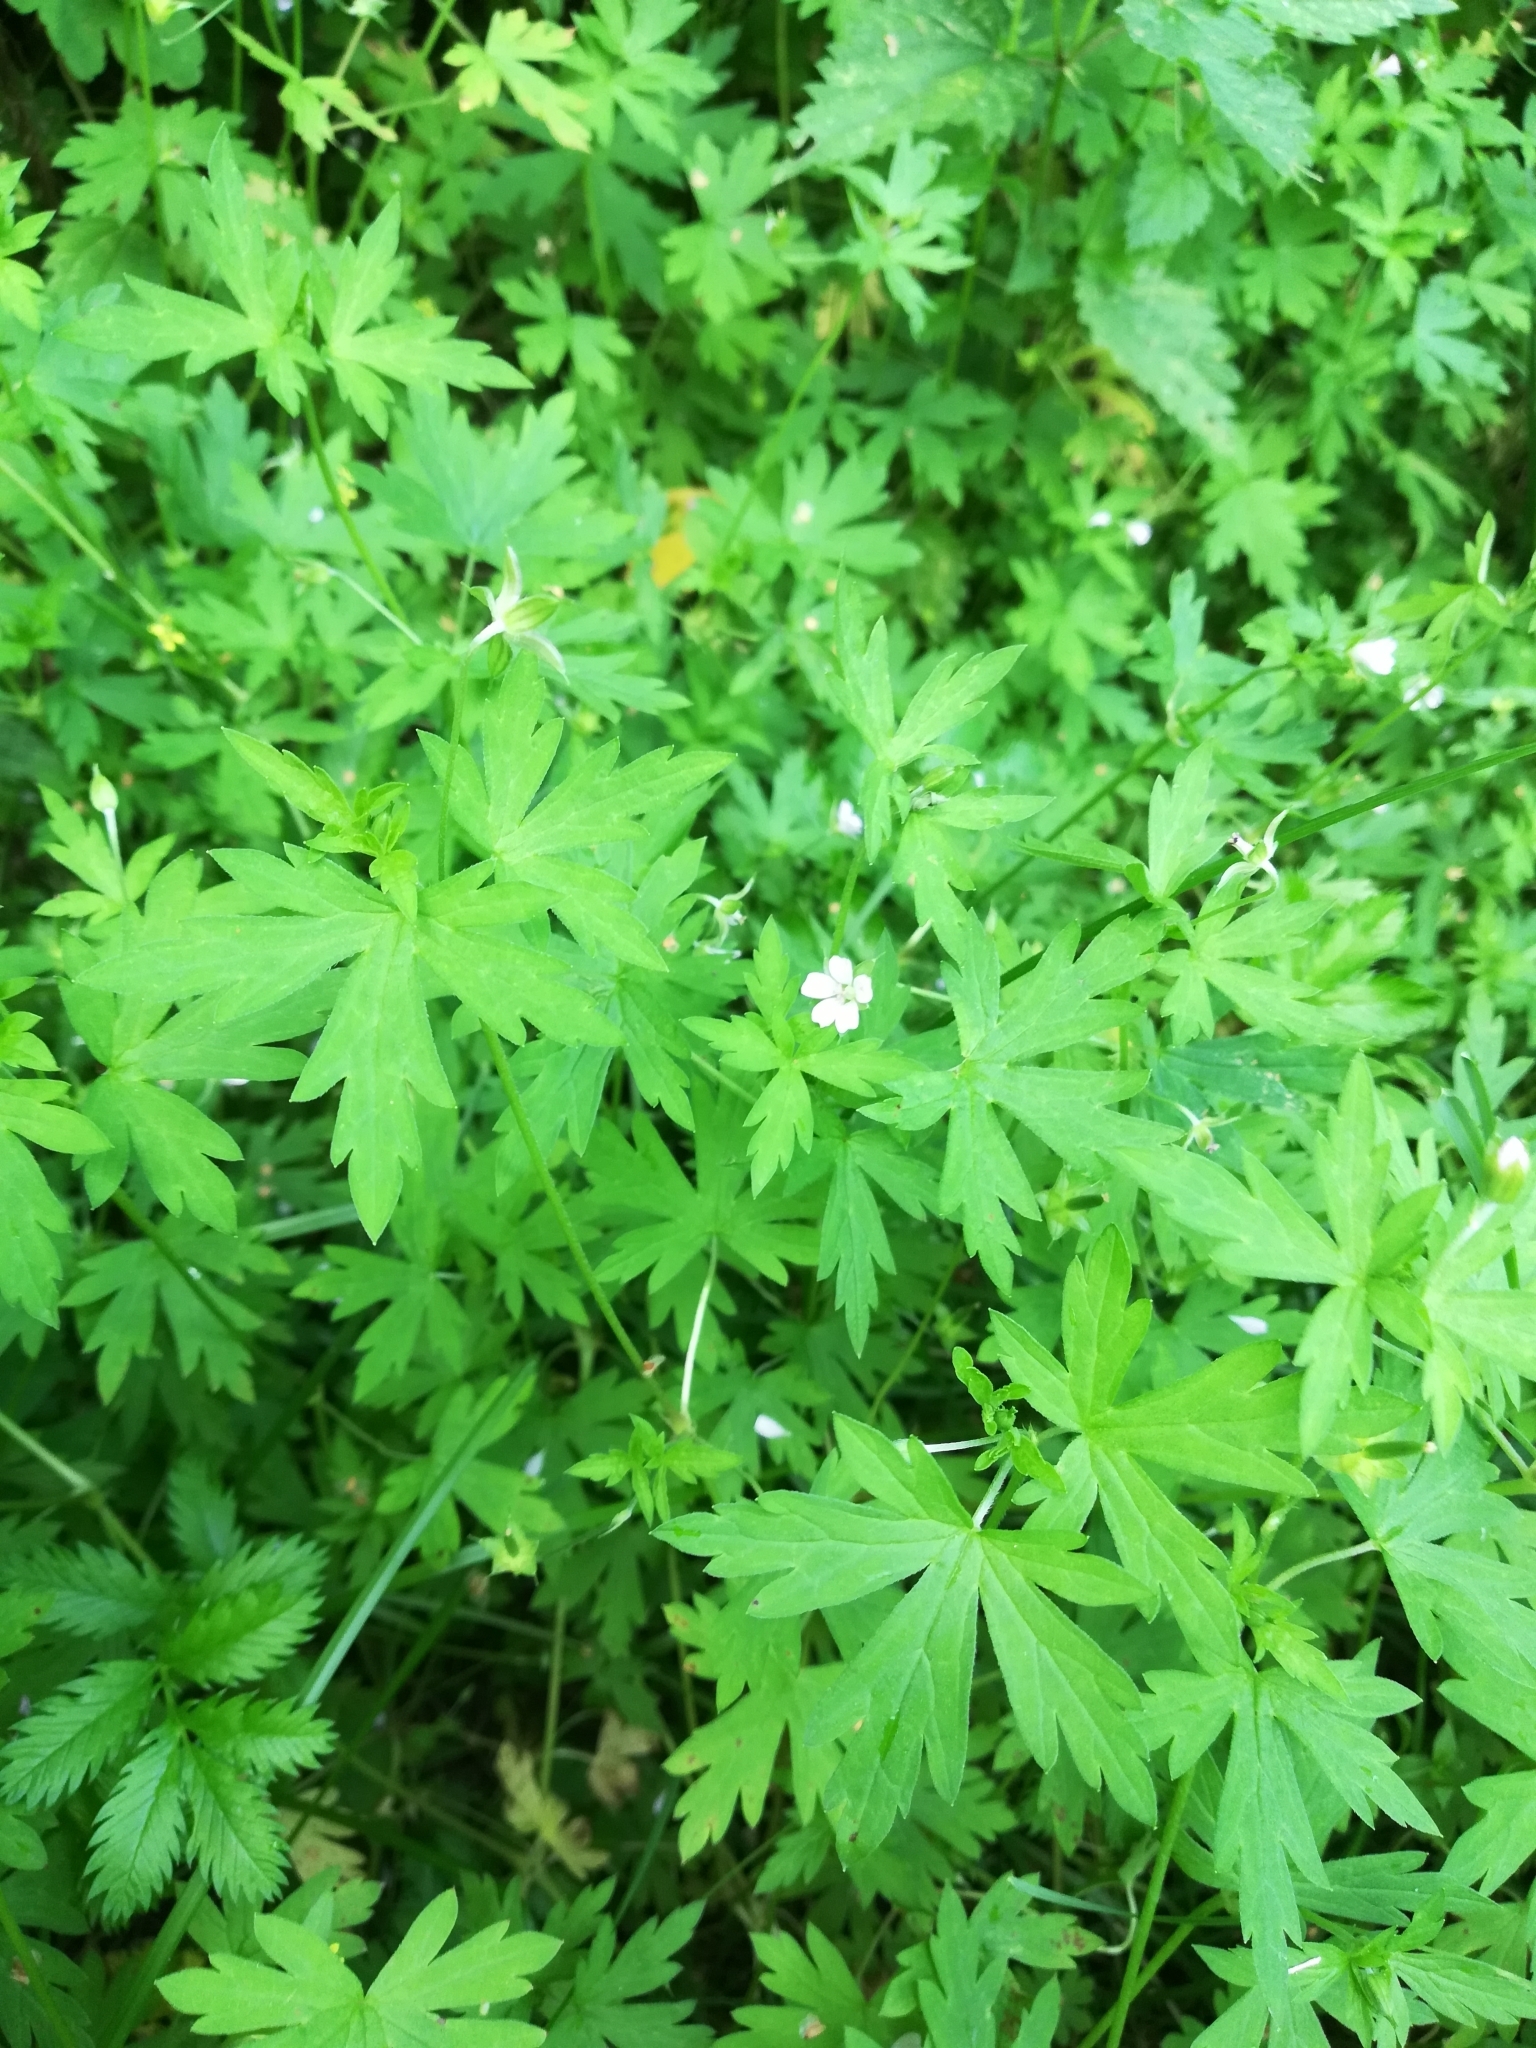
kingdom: Plantae
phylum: Tracheophyta
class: Magnoliopsida
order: Geraniales
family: Geraniaceae
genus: Geranium
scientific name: Geranium sibiricum
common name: Siberian crane's-bill
